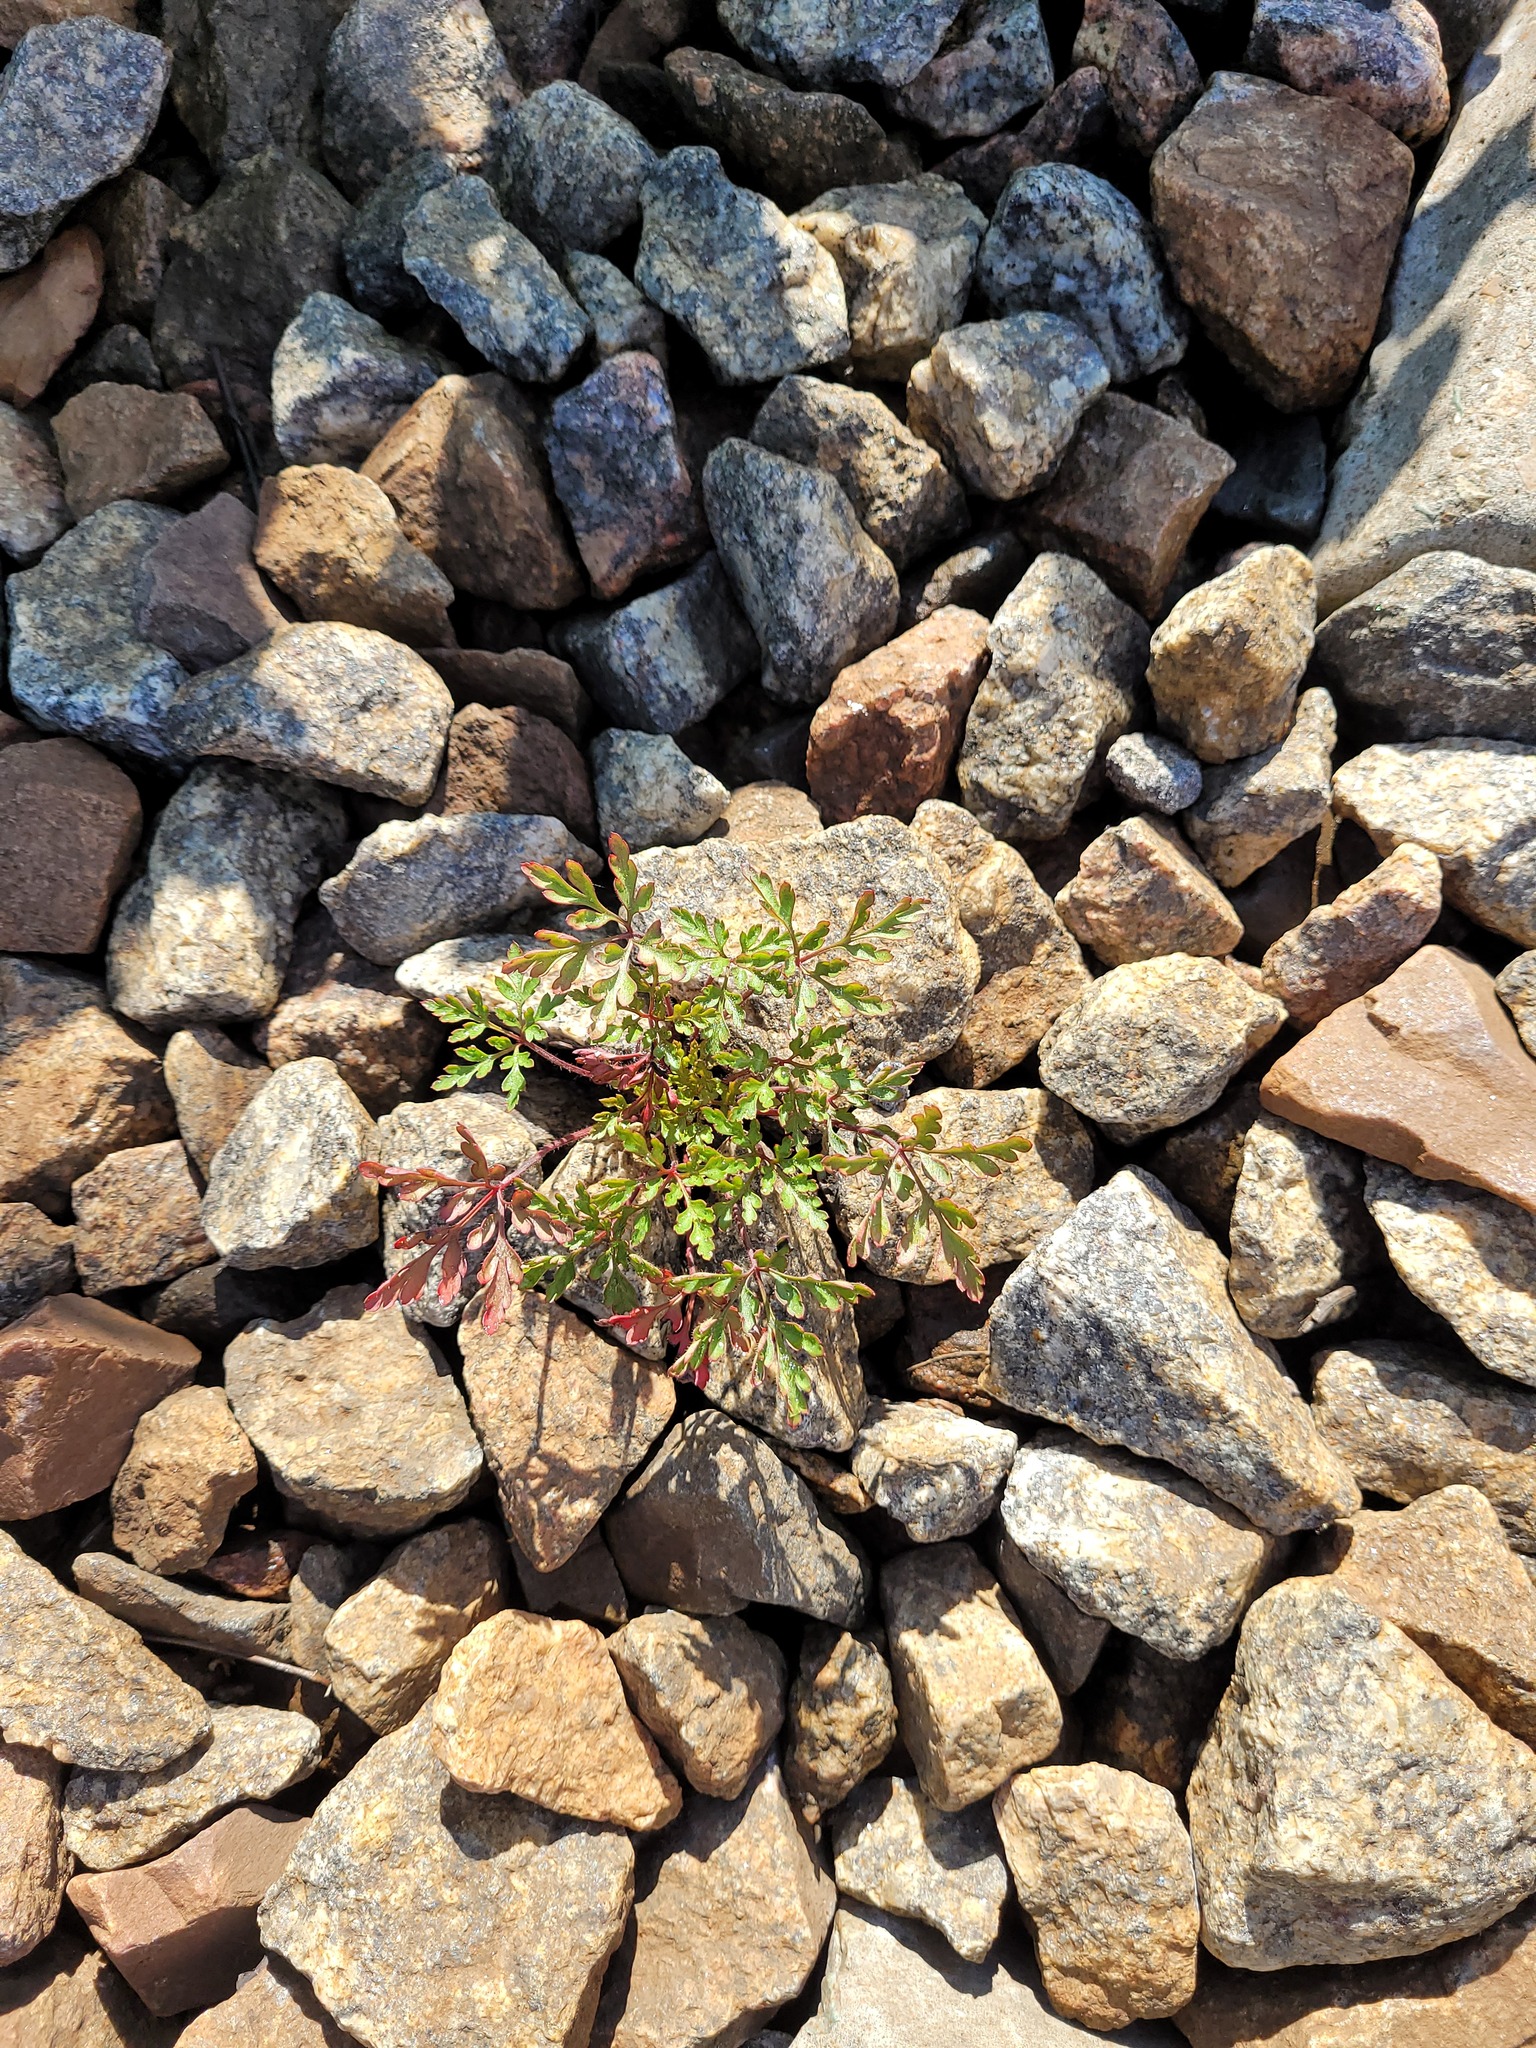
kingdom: Plantae
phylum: Tracheophyta
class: Magnoliopsida
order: Geraniales
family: Geraniaceae
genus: Geranium
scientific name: Geranium robertianum
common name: Herb-robert
